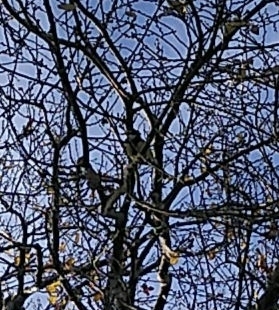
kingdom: Animalia
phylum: Chordata
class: Aves
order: Passeriformes
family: Paridae
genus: Parus
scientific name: Parus major
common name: Great tit
